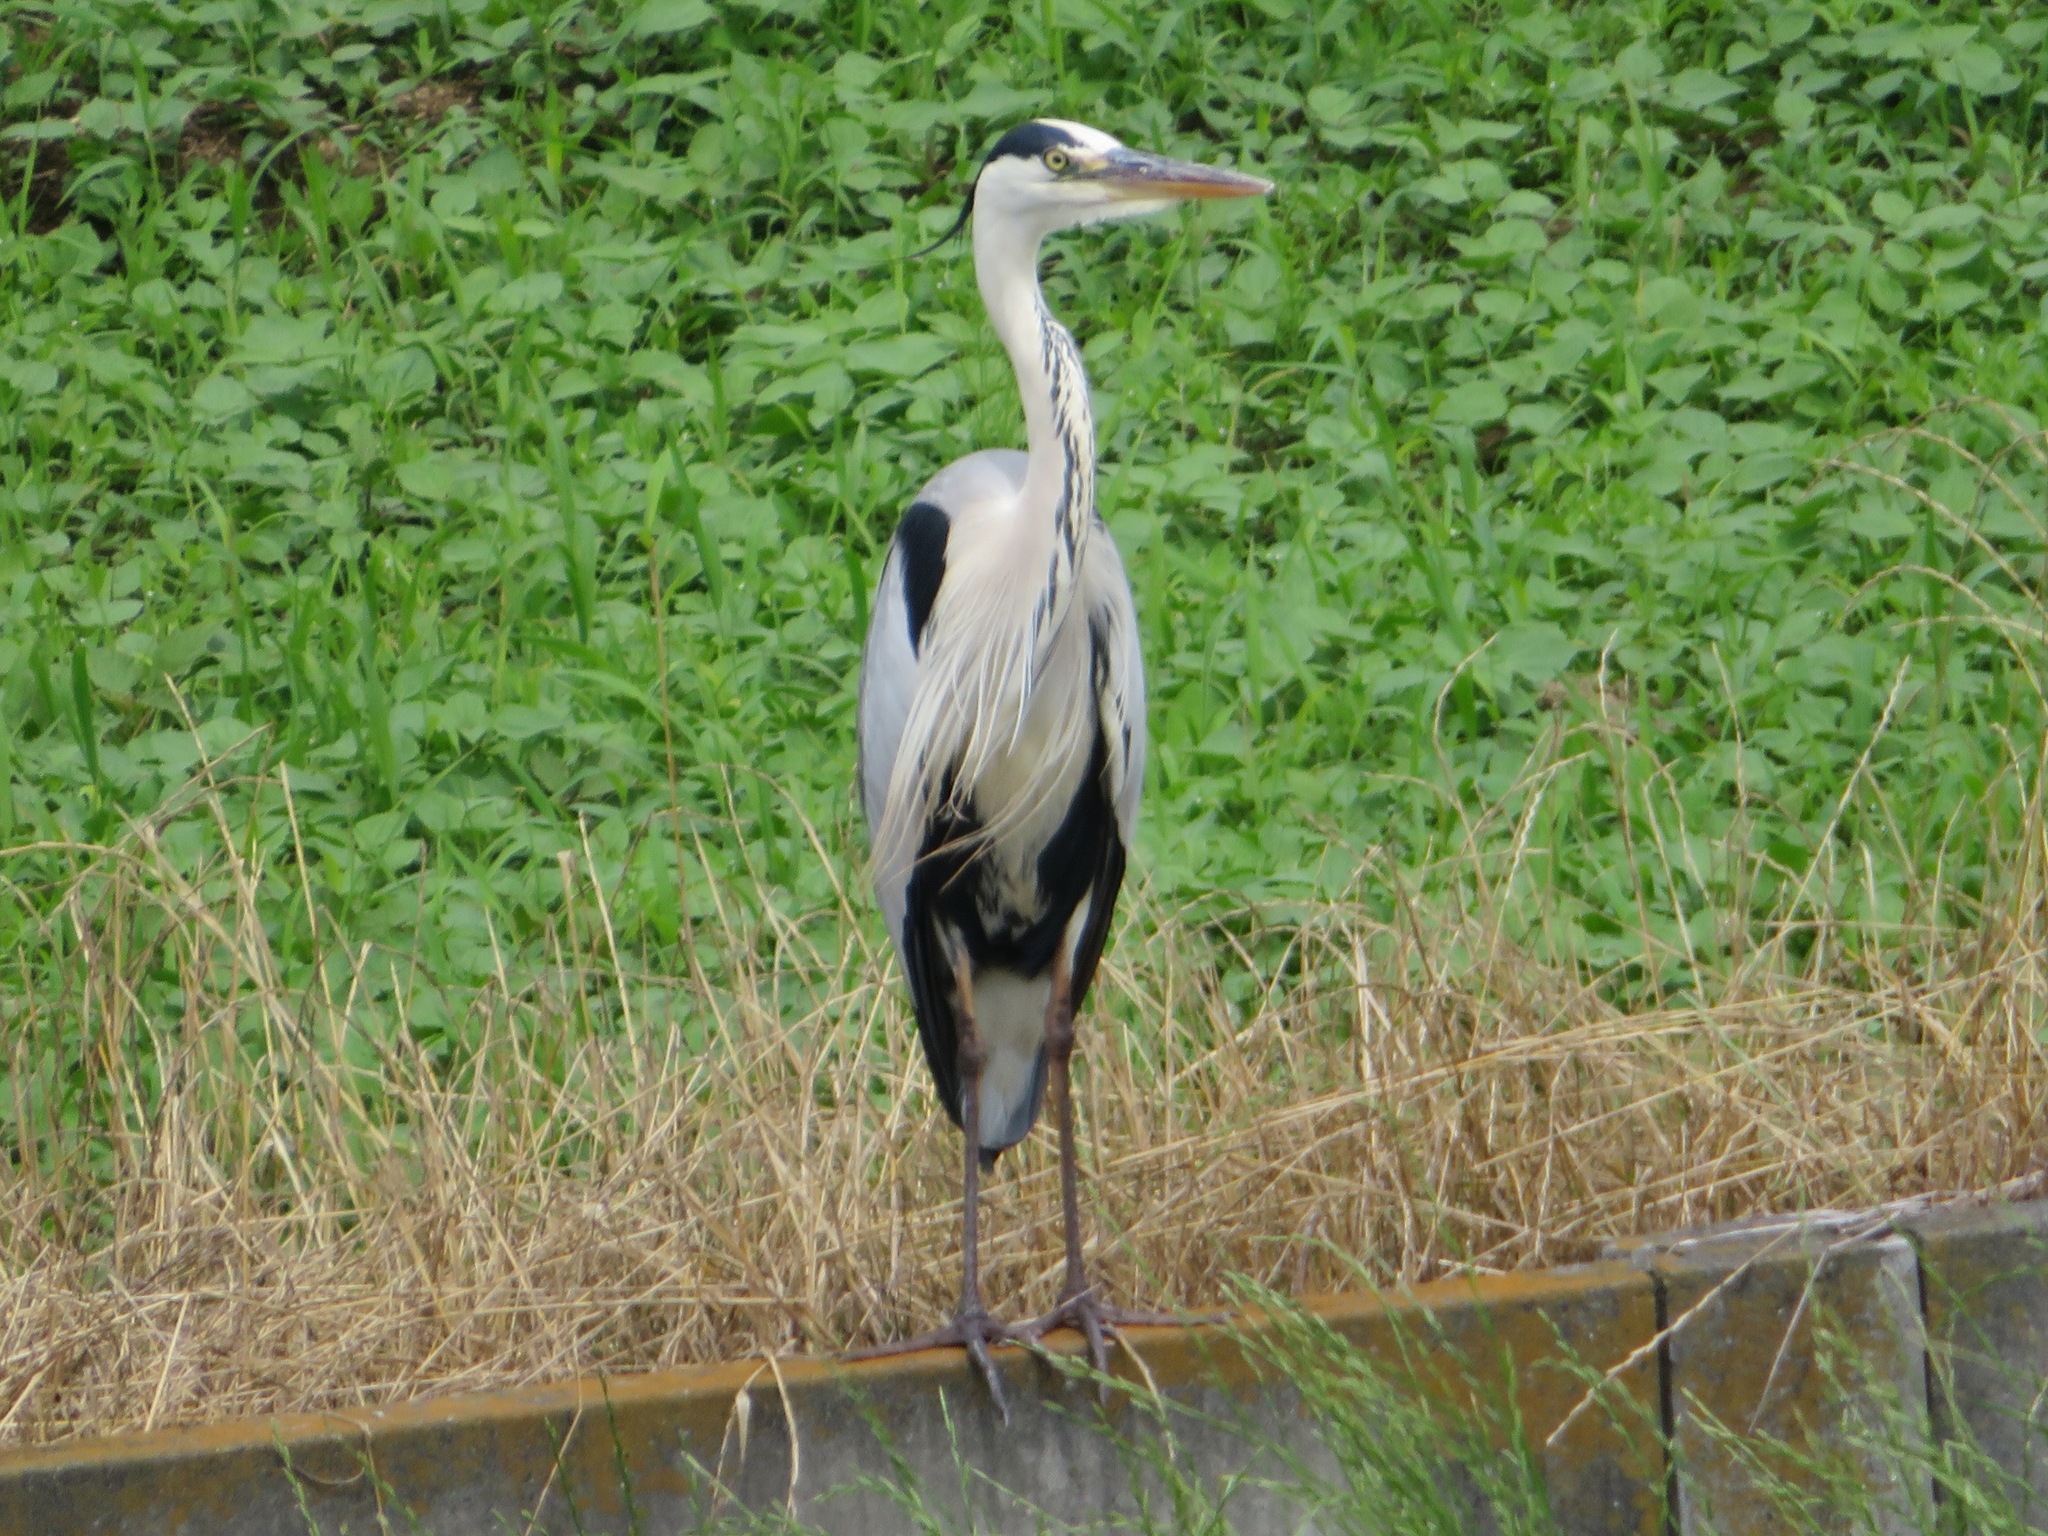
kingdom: Animalia
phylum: Chordata
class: Aves
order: Pelecaniformes
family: Ardeidae
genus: Ardea
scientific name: Ardea cinerea
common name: Grey heron
